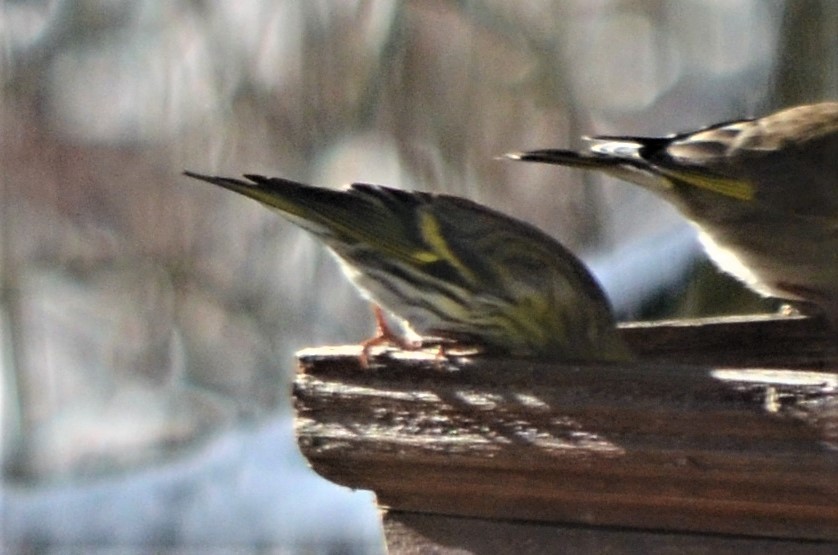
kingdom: Animalia
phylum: Chordata
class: Aves
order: Passeriformes
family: Fringillidae
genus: Spinus
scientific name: Spinus spinus
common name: Eurasian siskin
